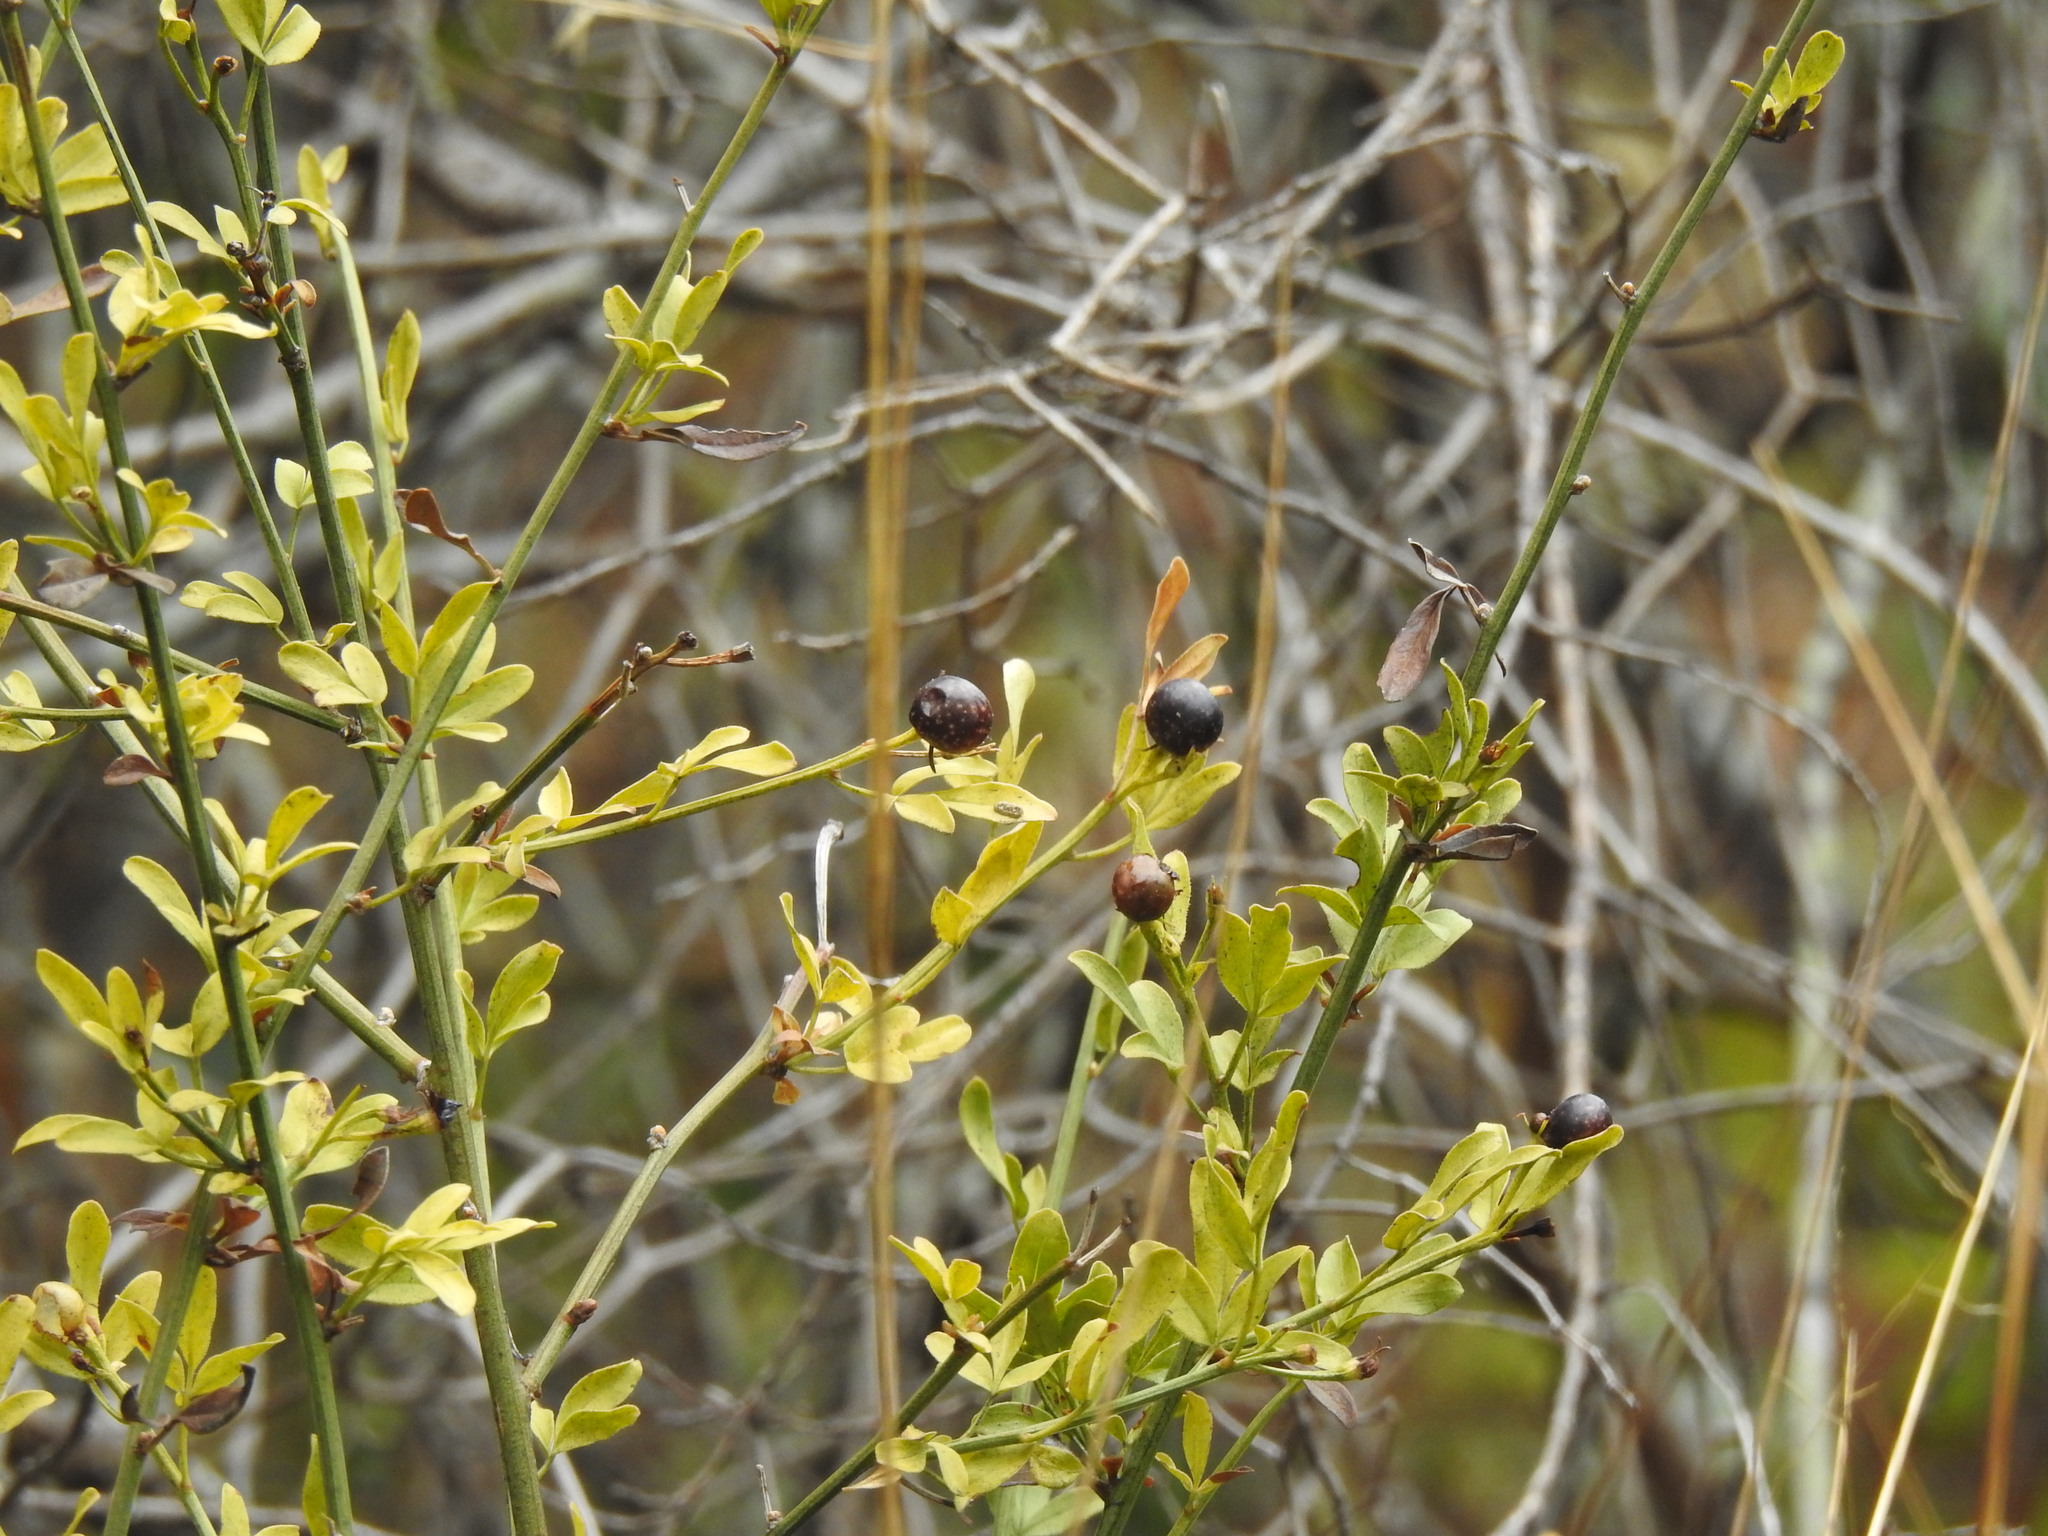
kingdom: Plantae
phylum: Tracheophyta
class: Magnoliopsida
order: Lamiales
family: Oleaceae
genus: Chrysojasminum
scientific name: Chrysojasminum fruticans
